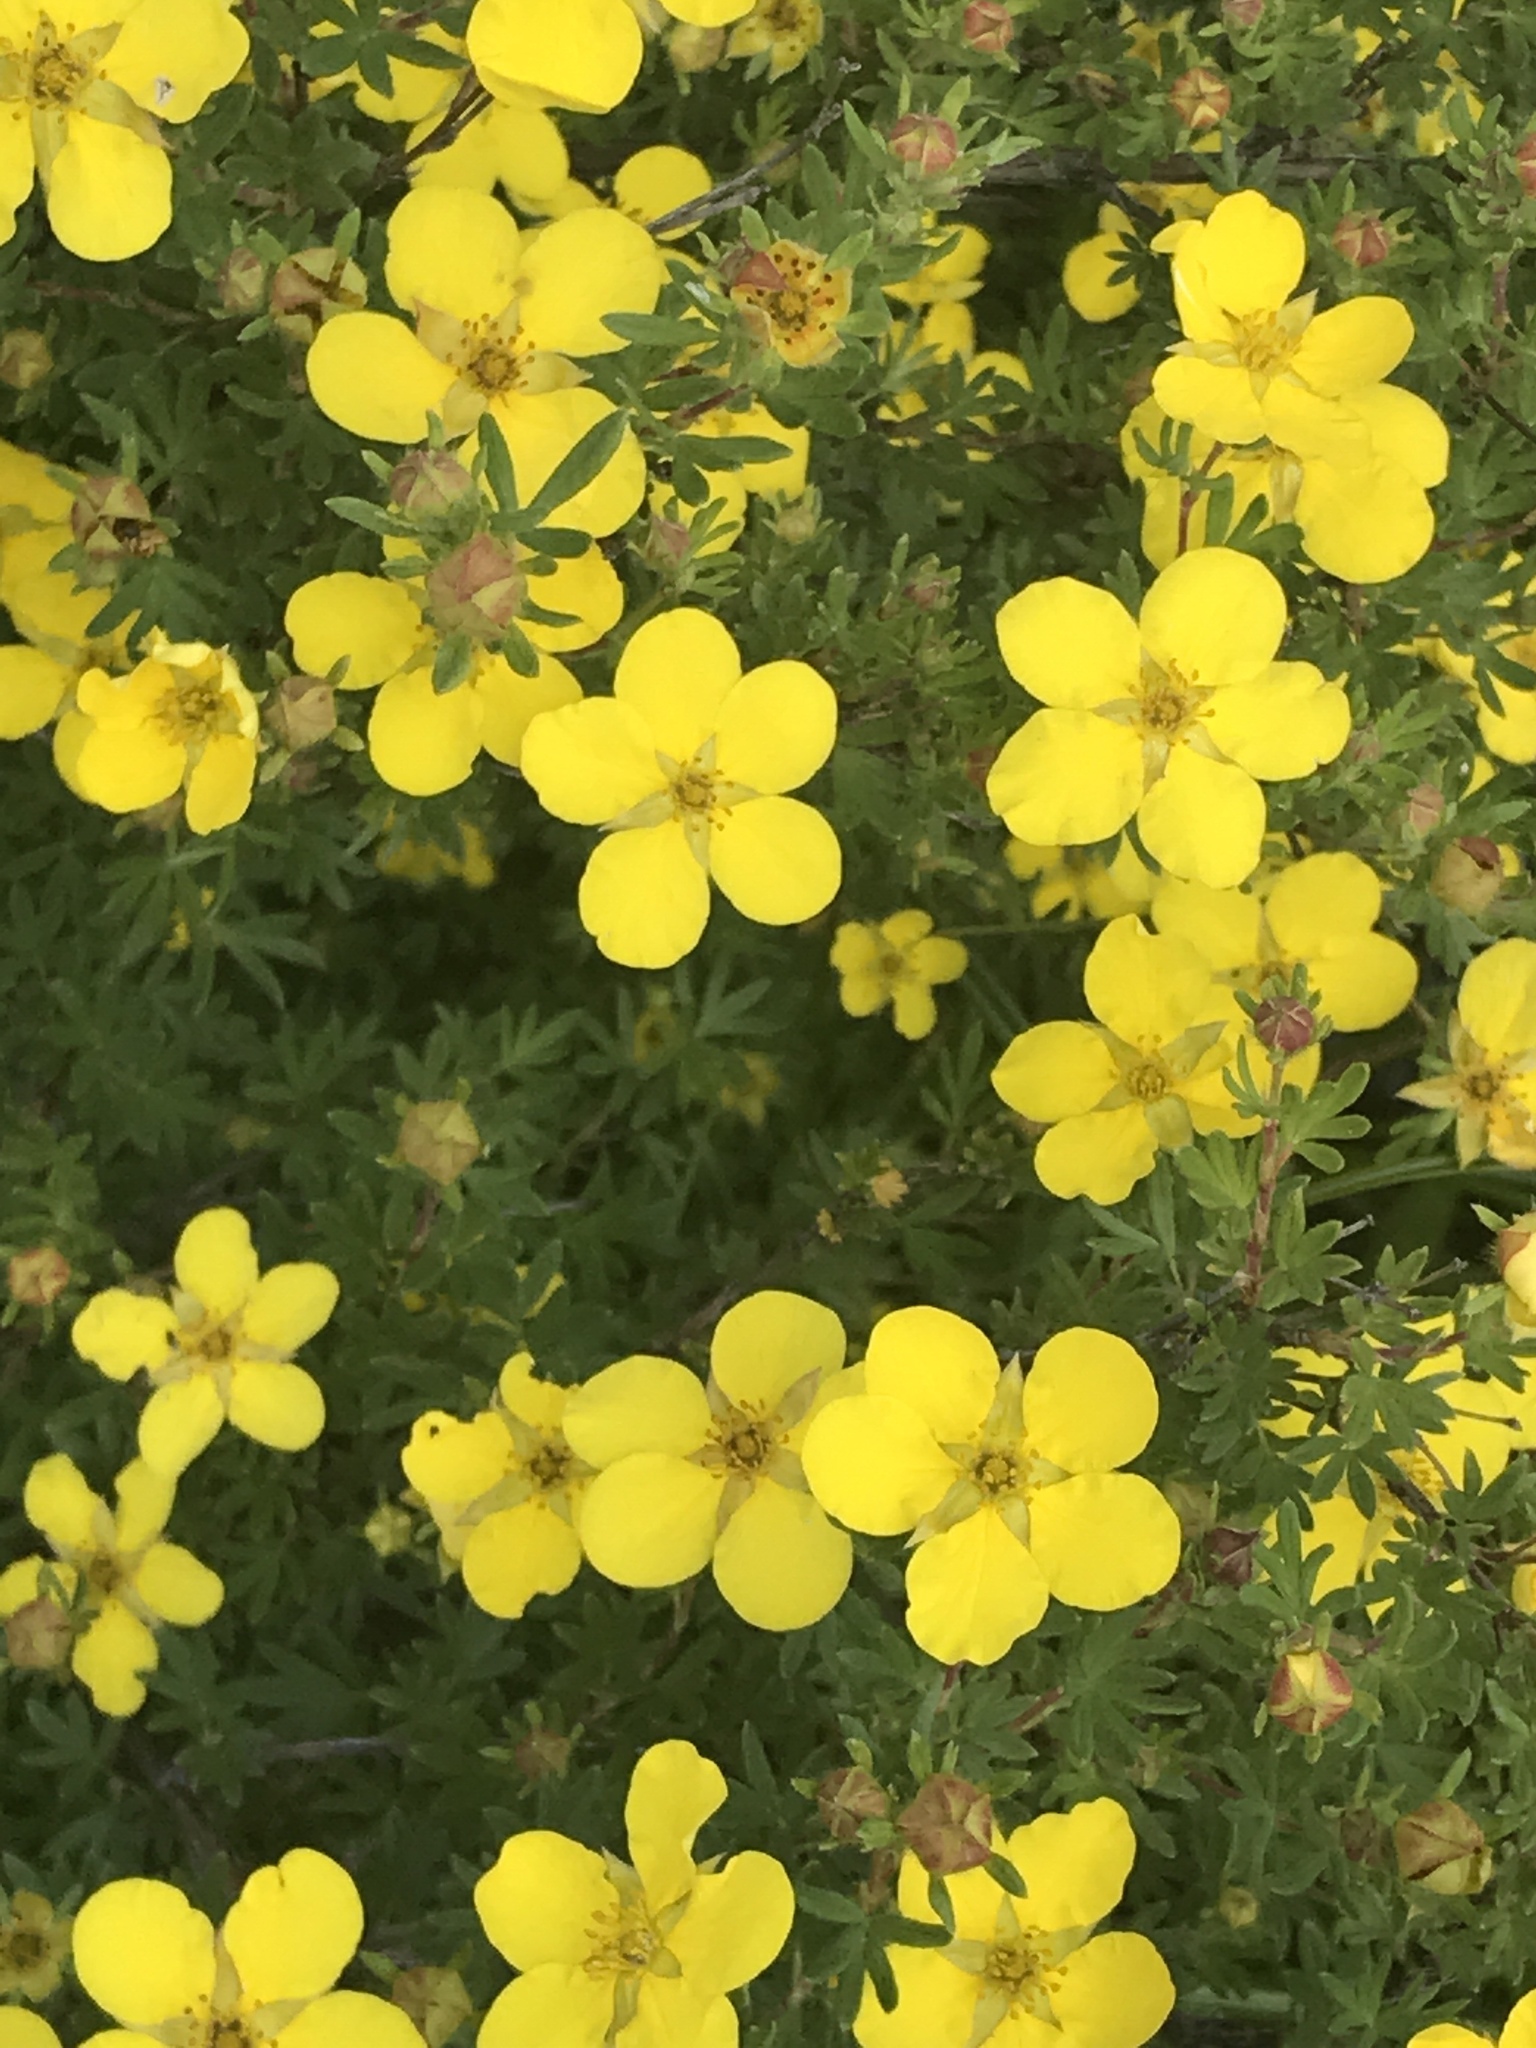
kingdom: Plantae
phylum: Tracheophyta
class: Magnoliopsida
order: Rosales
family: Rosaceae
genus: Dasiphora
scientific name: Dasiphora fruticosa
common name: Shrubby cinquefoil
